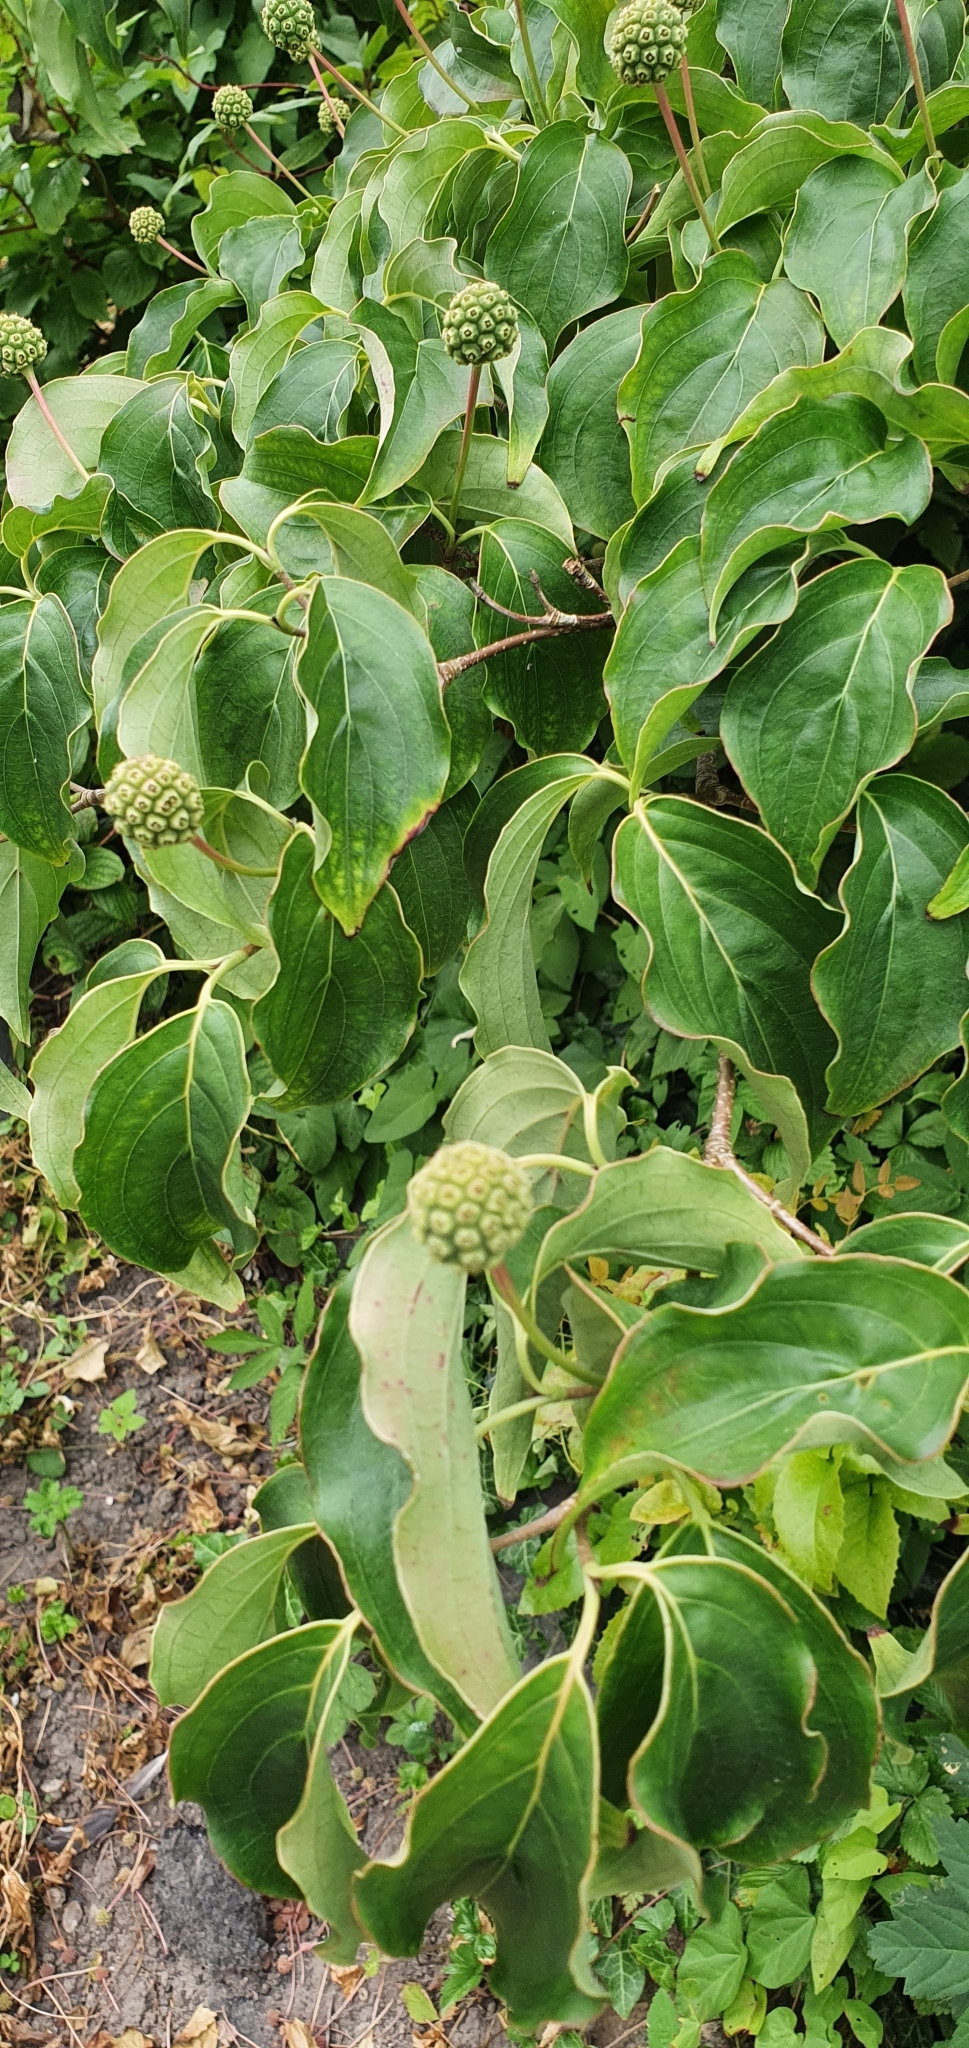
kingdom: Plantae
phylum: Tracheophyta
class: Magnoliopsida
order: Cornales
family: Cornaceae
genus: Cornus
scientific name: Cornus kousa
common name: Japanese dogwood
